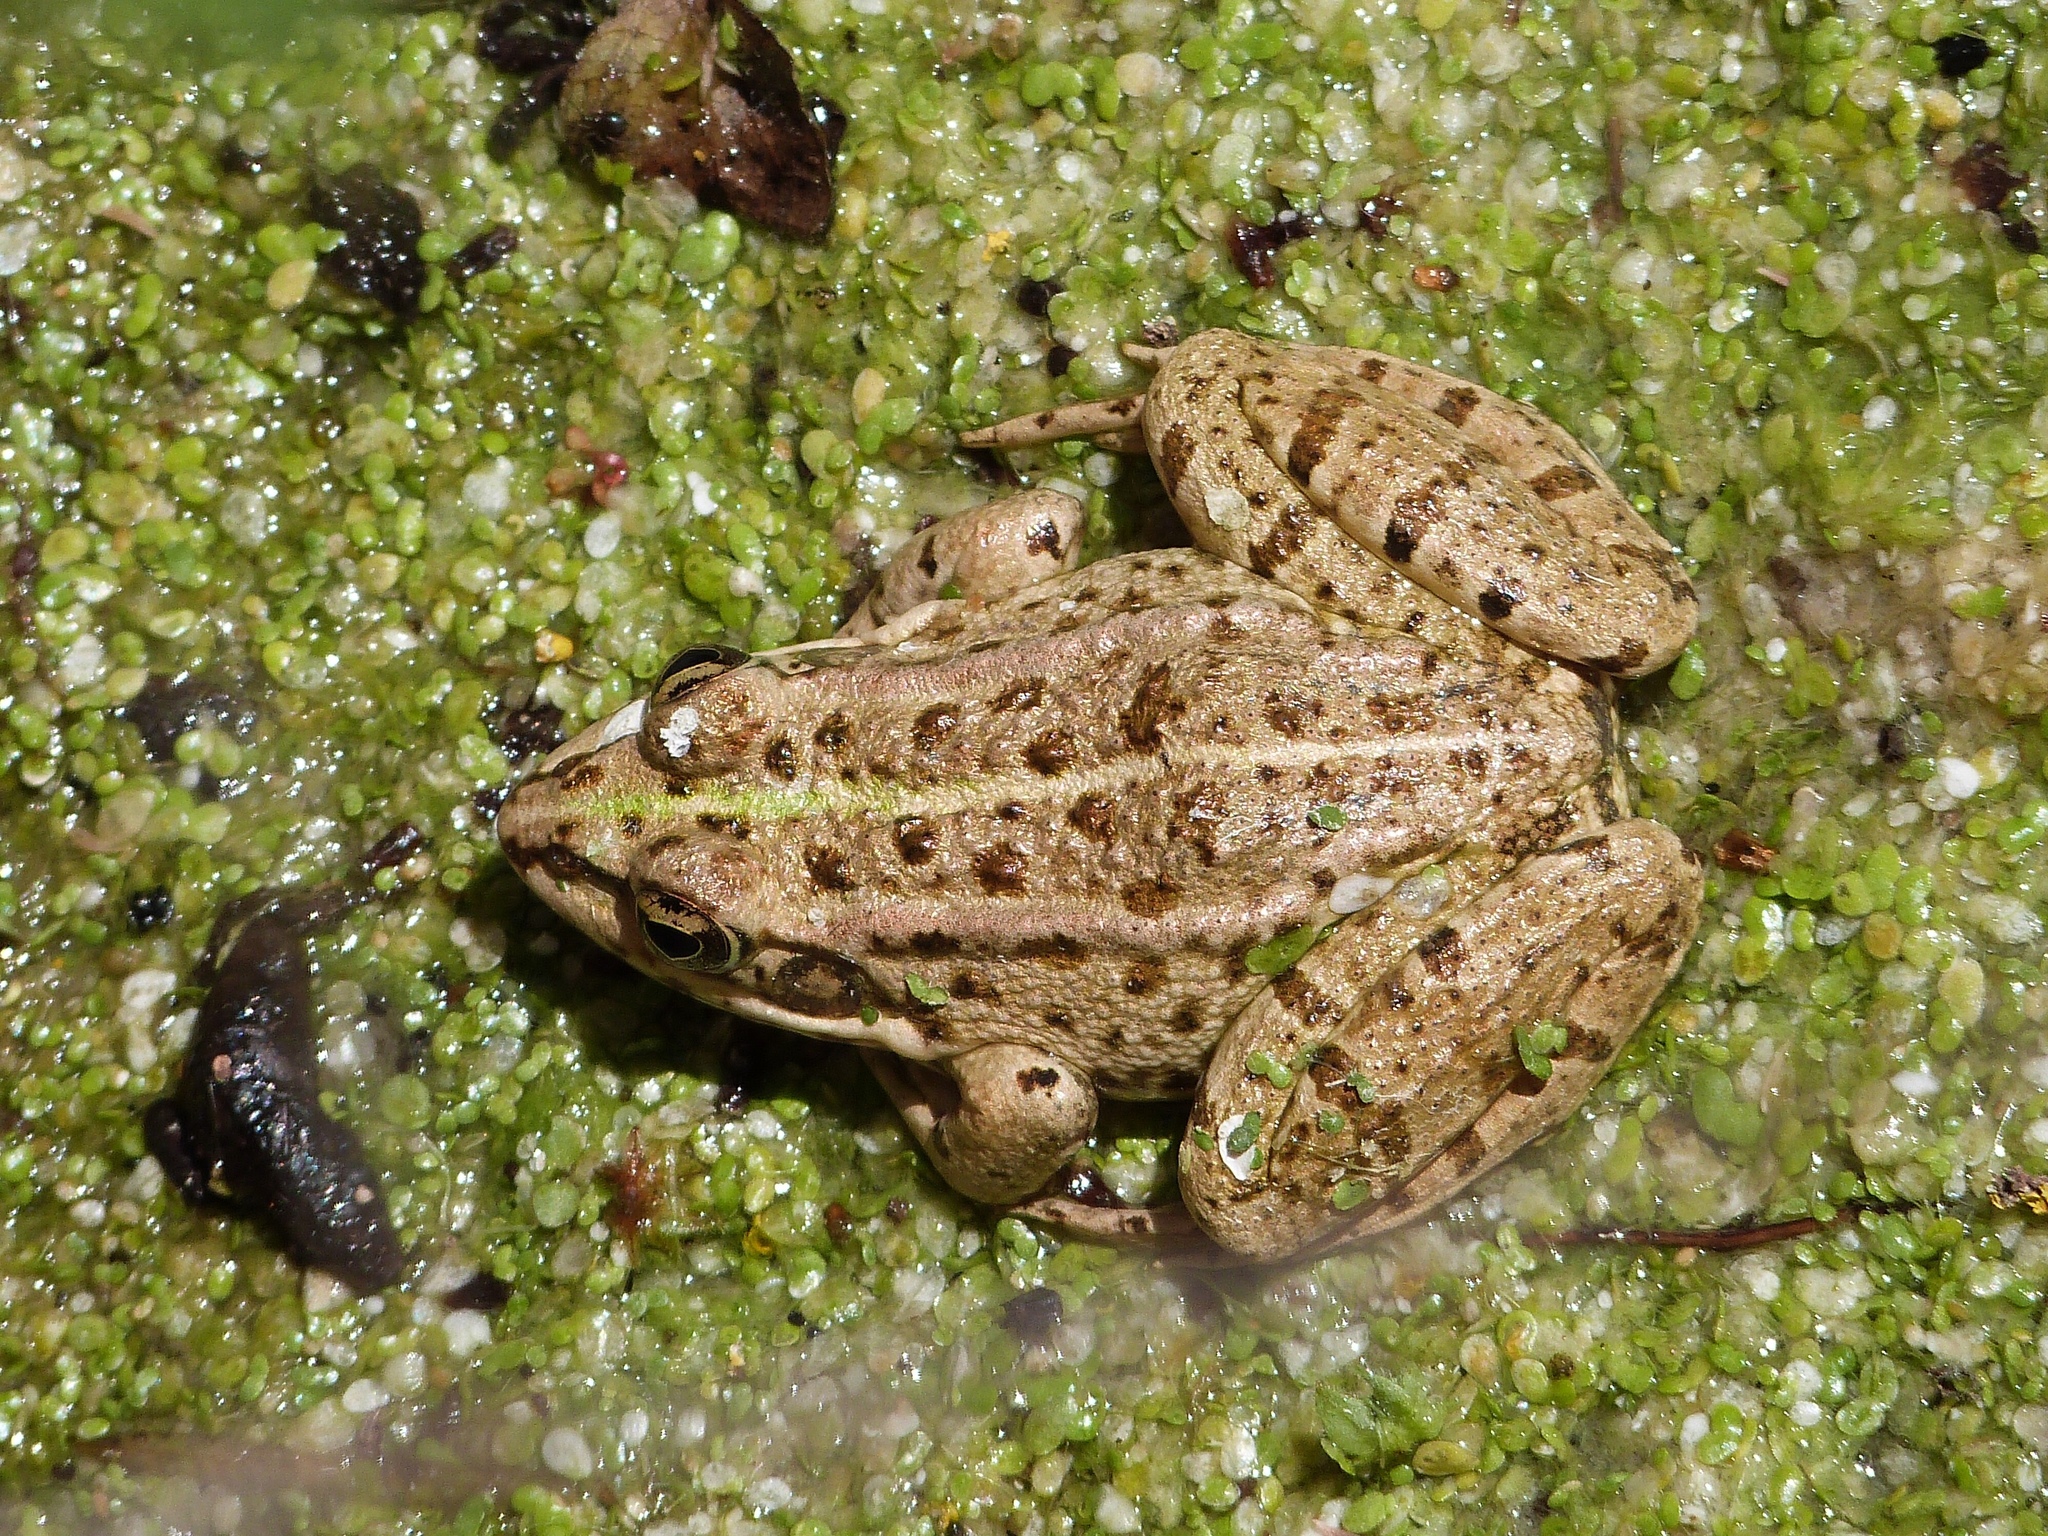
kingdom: Animalia
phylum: Chordata
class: Amphibia
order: Anura
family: Ranidae
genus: Pelophylax
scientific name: Pelophylax perezi
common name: Perez's frog
